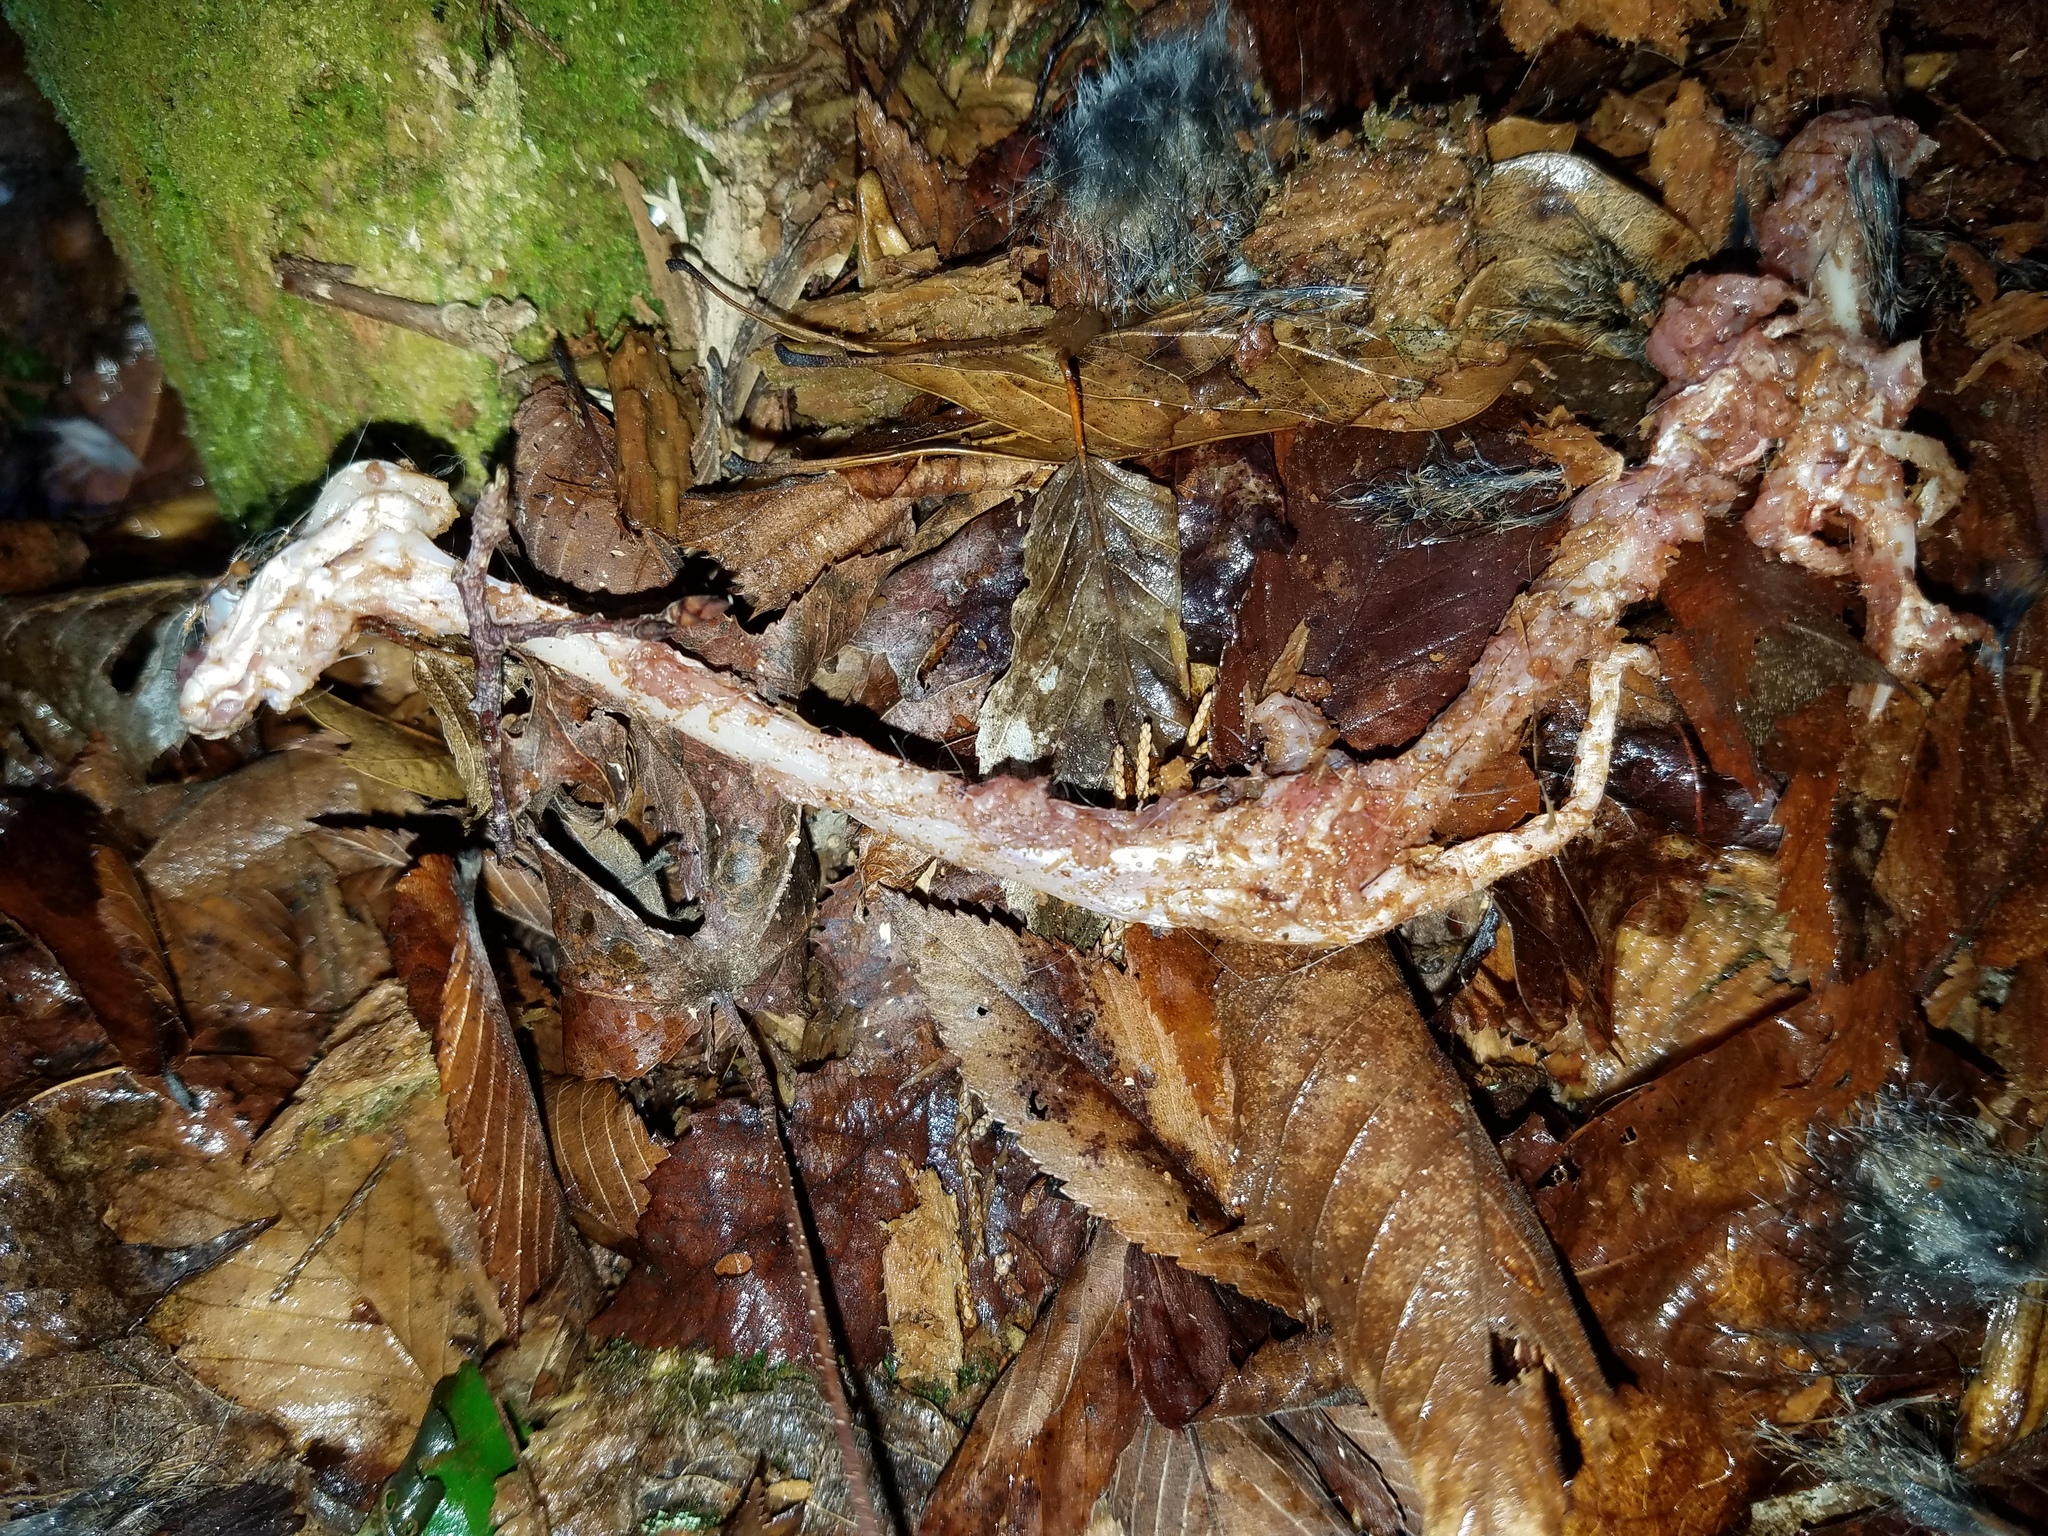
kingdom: Animalia
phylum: Chordata
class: Mammalia
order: Rodentia
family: Sciuridae
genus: Sciurus
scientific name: Sciurus carolinensis
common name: Eastern gray squirrel
